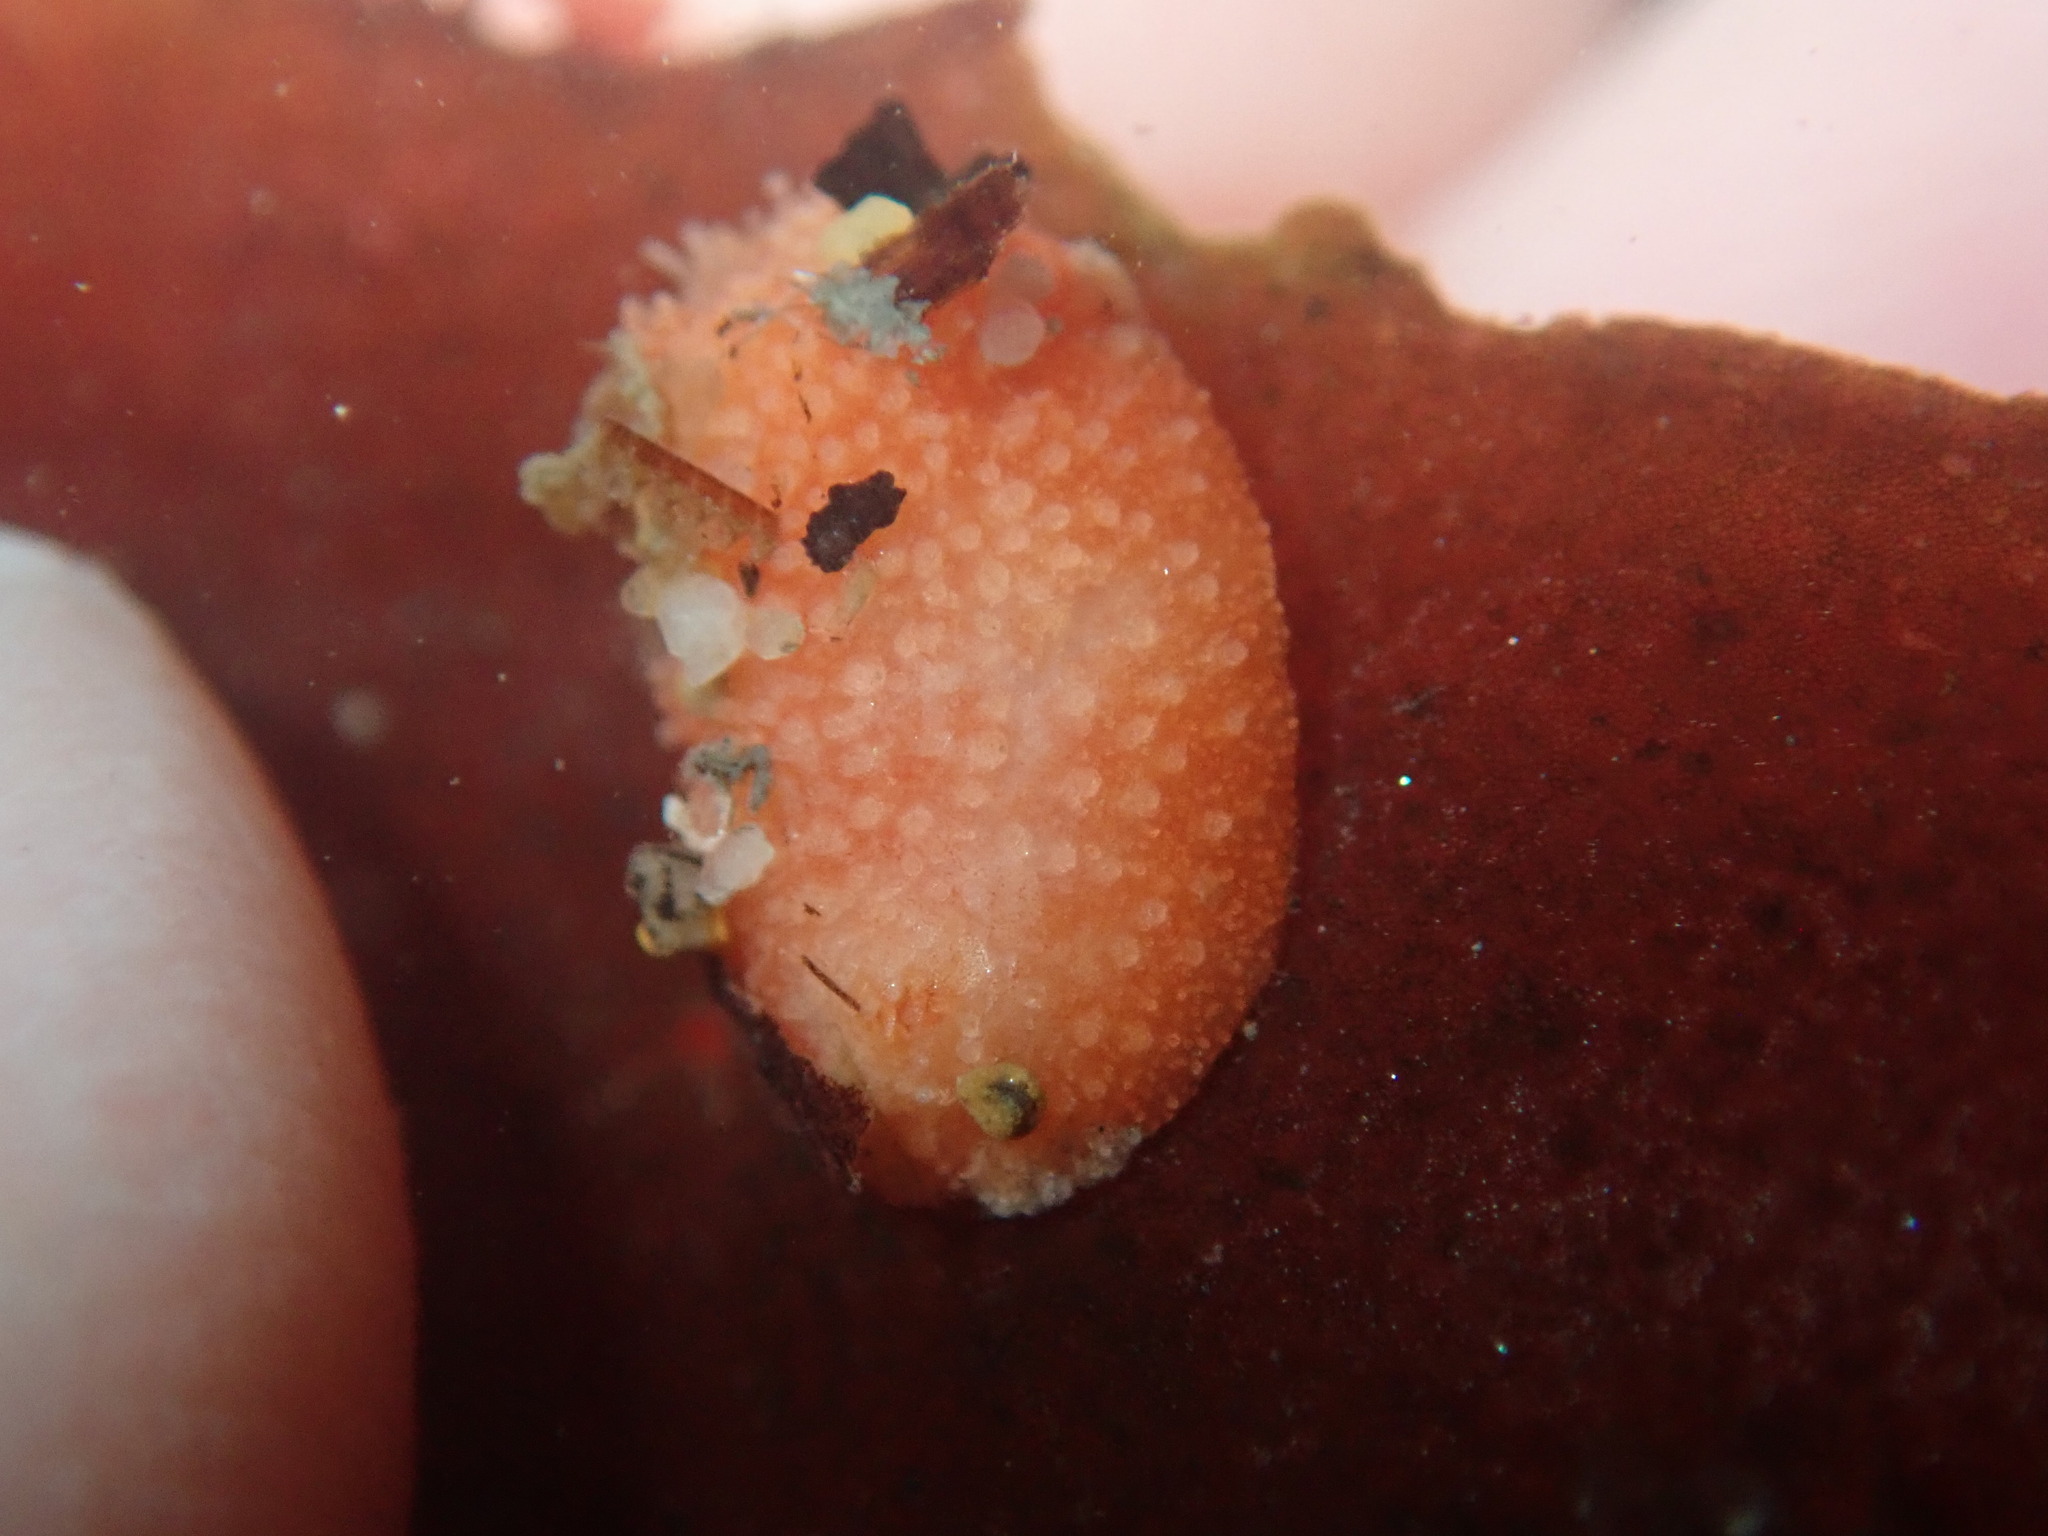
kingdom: Animalia
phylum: Echinodermata
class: Holothuroidea
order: Dendrochirotida
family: Psolidae
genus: Lissothuria
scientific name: Lissothuria nutriens
